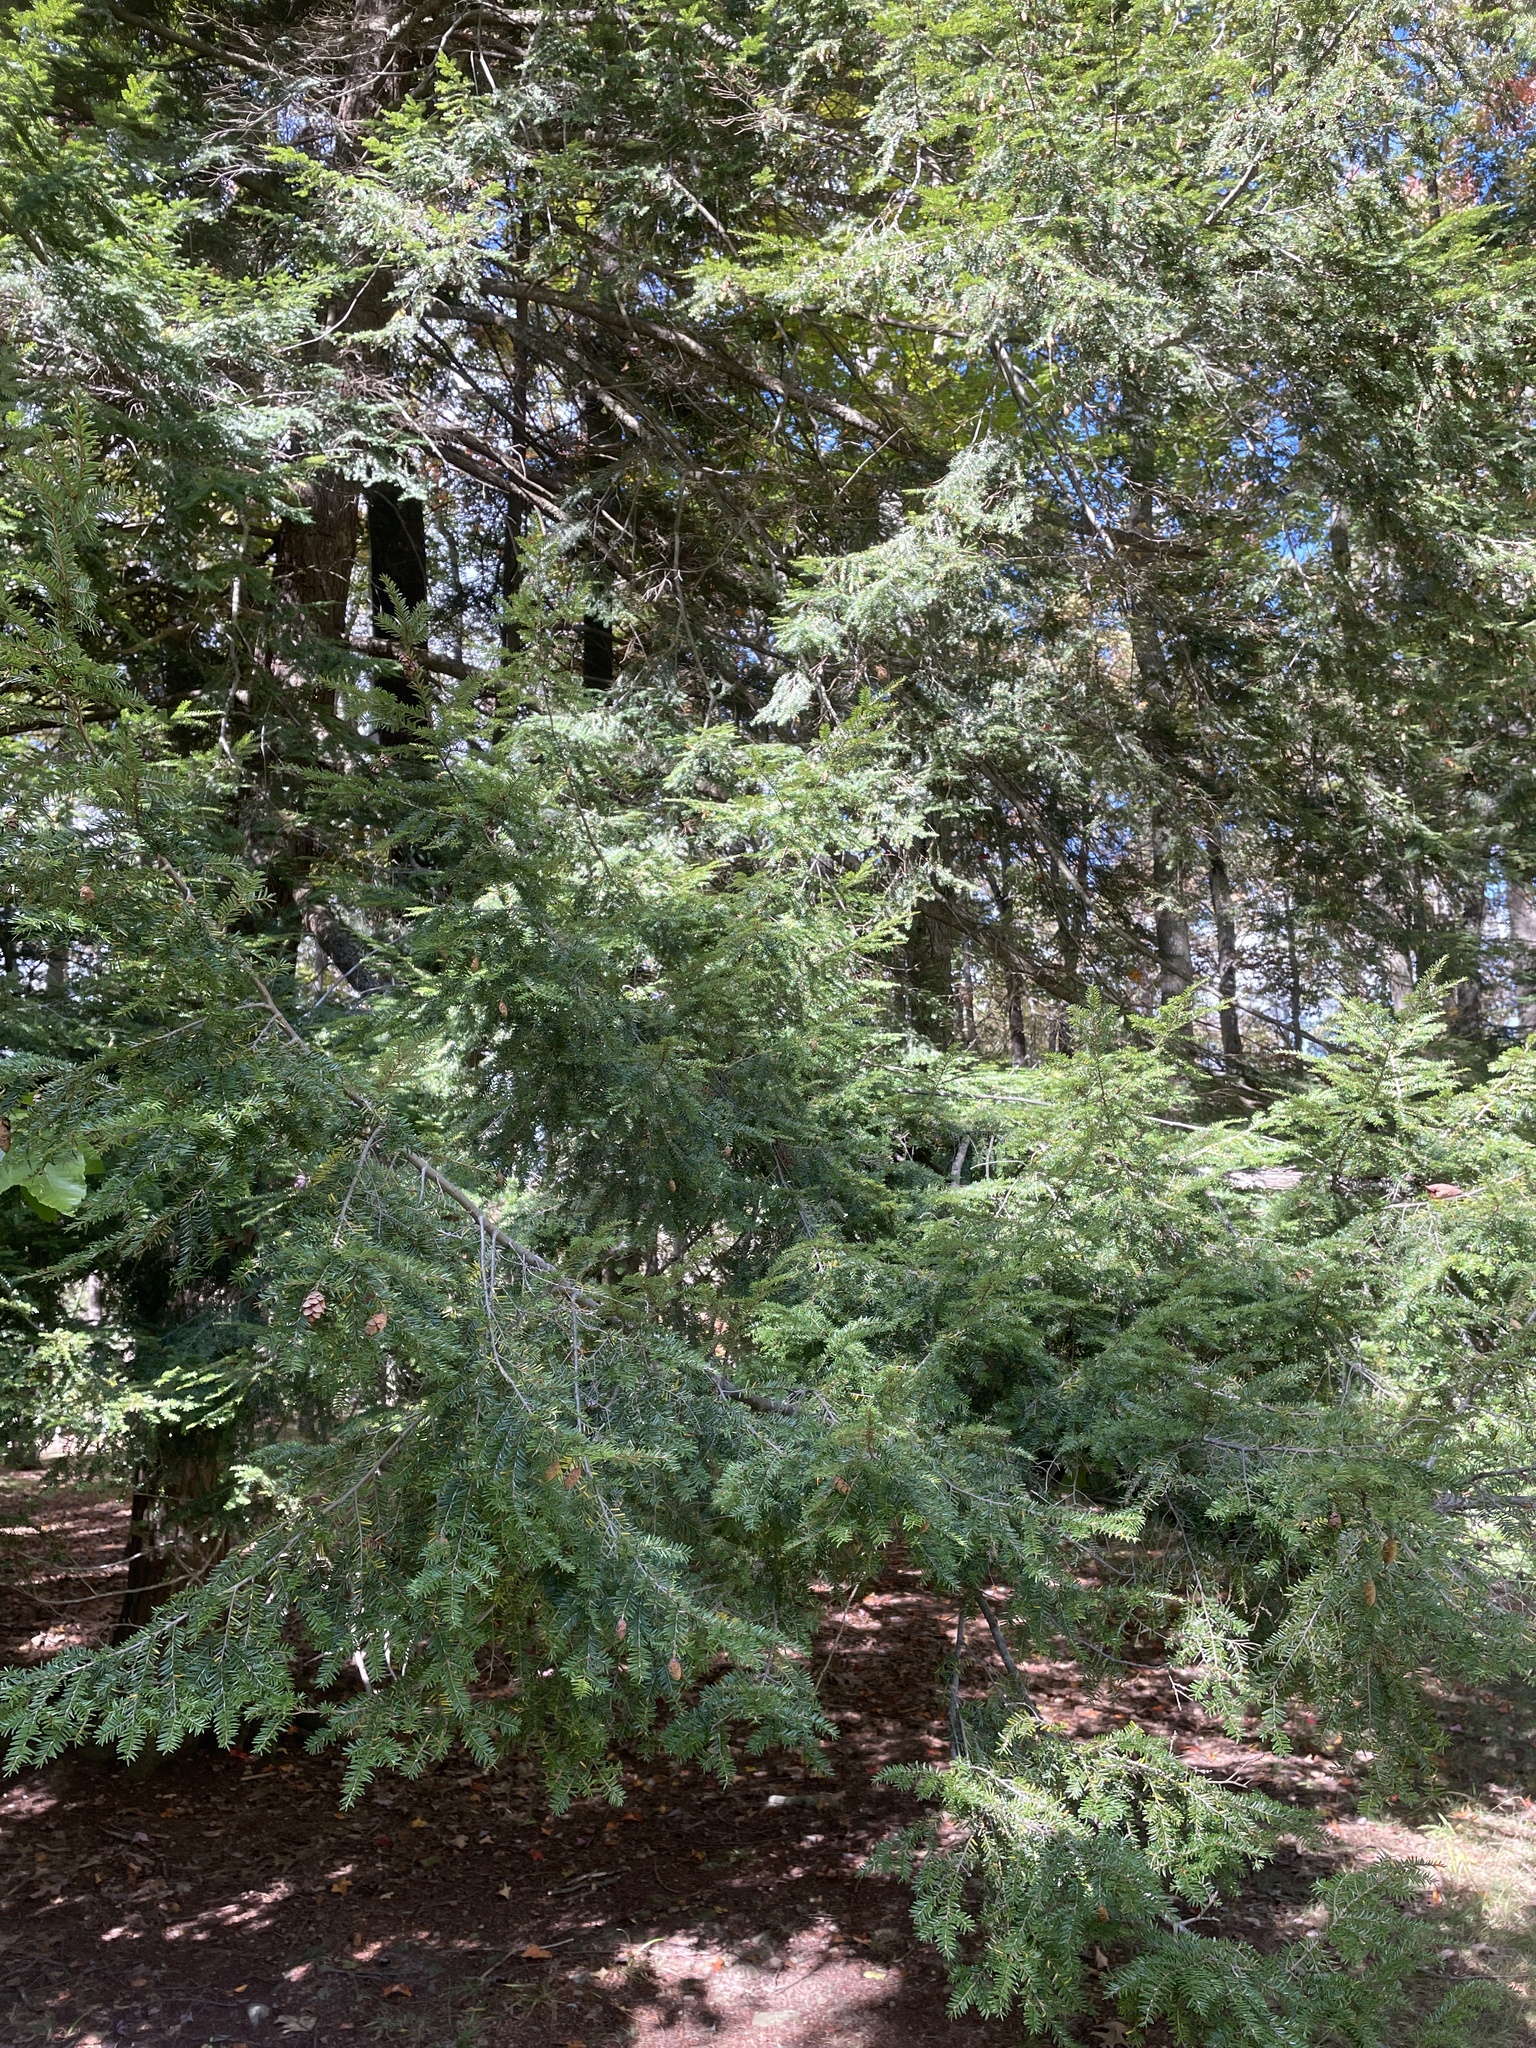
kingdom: Plantae
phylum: Tracheophyta
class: Pinopsida
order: Pinales
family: Pinaceae
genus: Tsuga
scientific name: Tsuga canadensis
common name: Eastern hemlock
